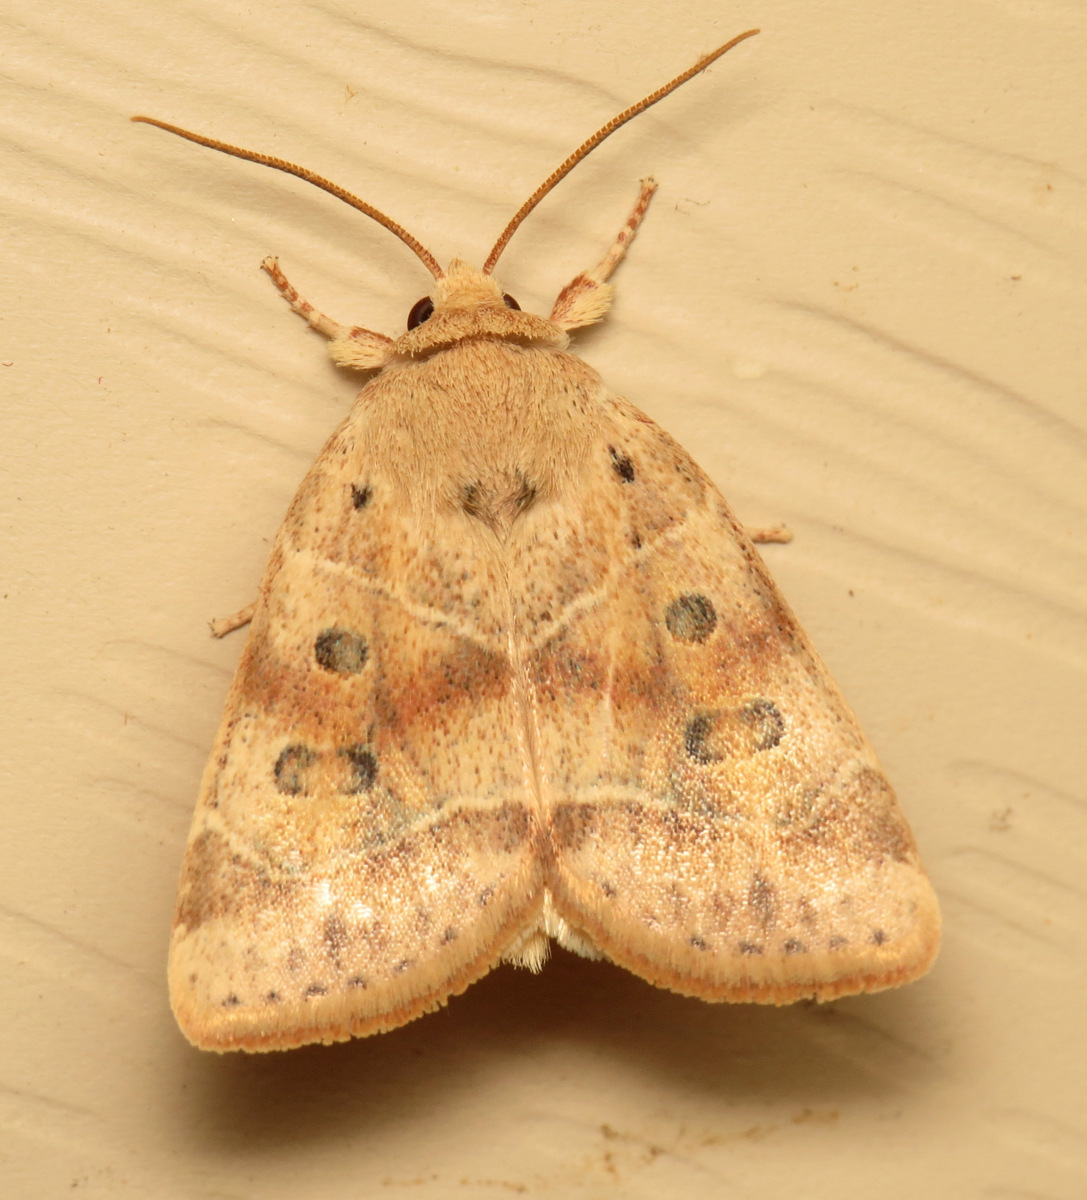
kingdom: Animalia
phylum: Arthropoda
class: Insecta
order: Lepidoptera
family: Noctuidae
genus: Cosmia
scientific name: Cosmia calami
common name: American dun-bar moth
